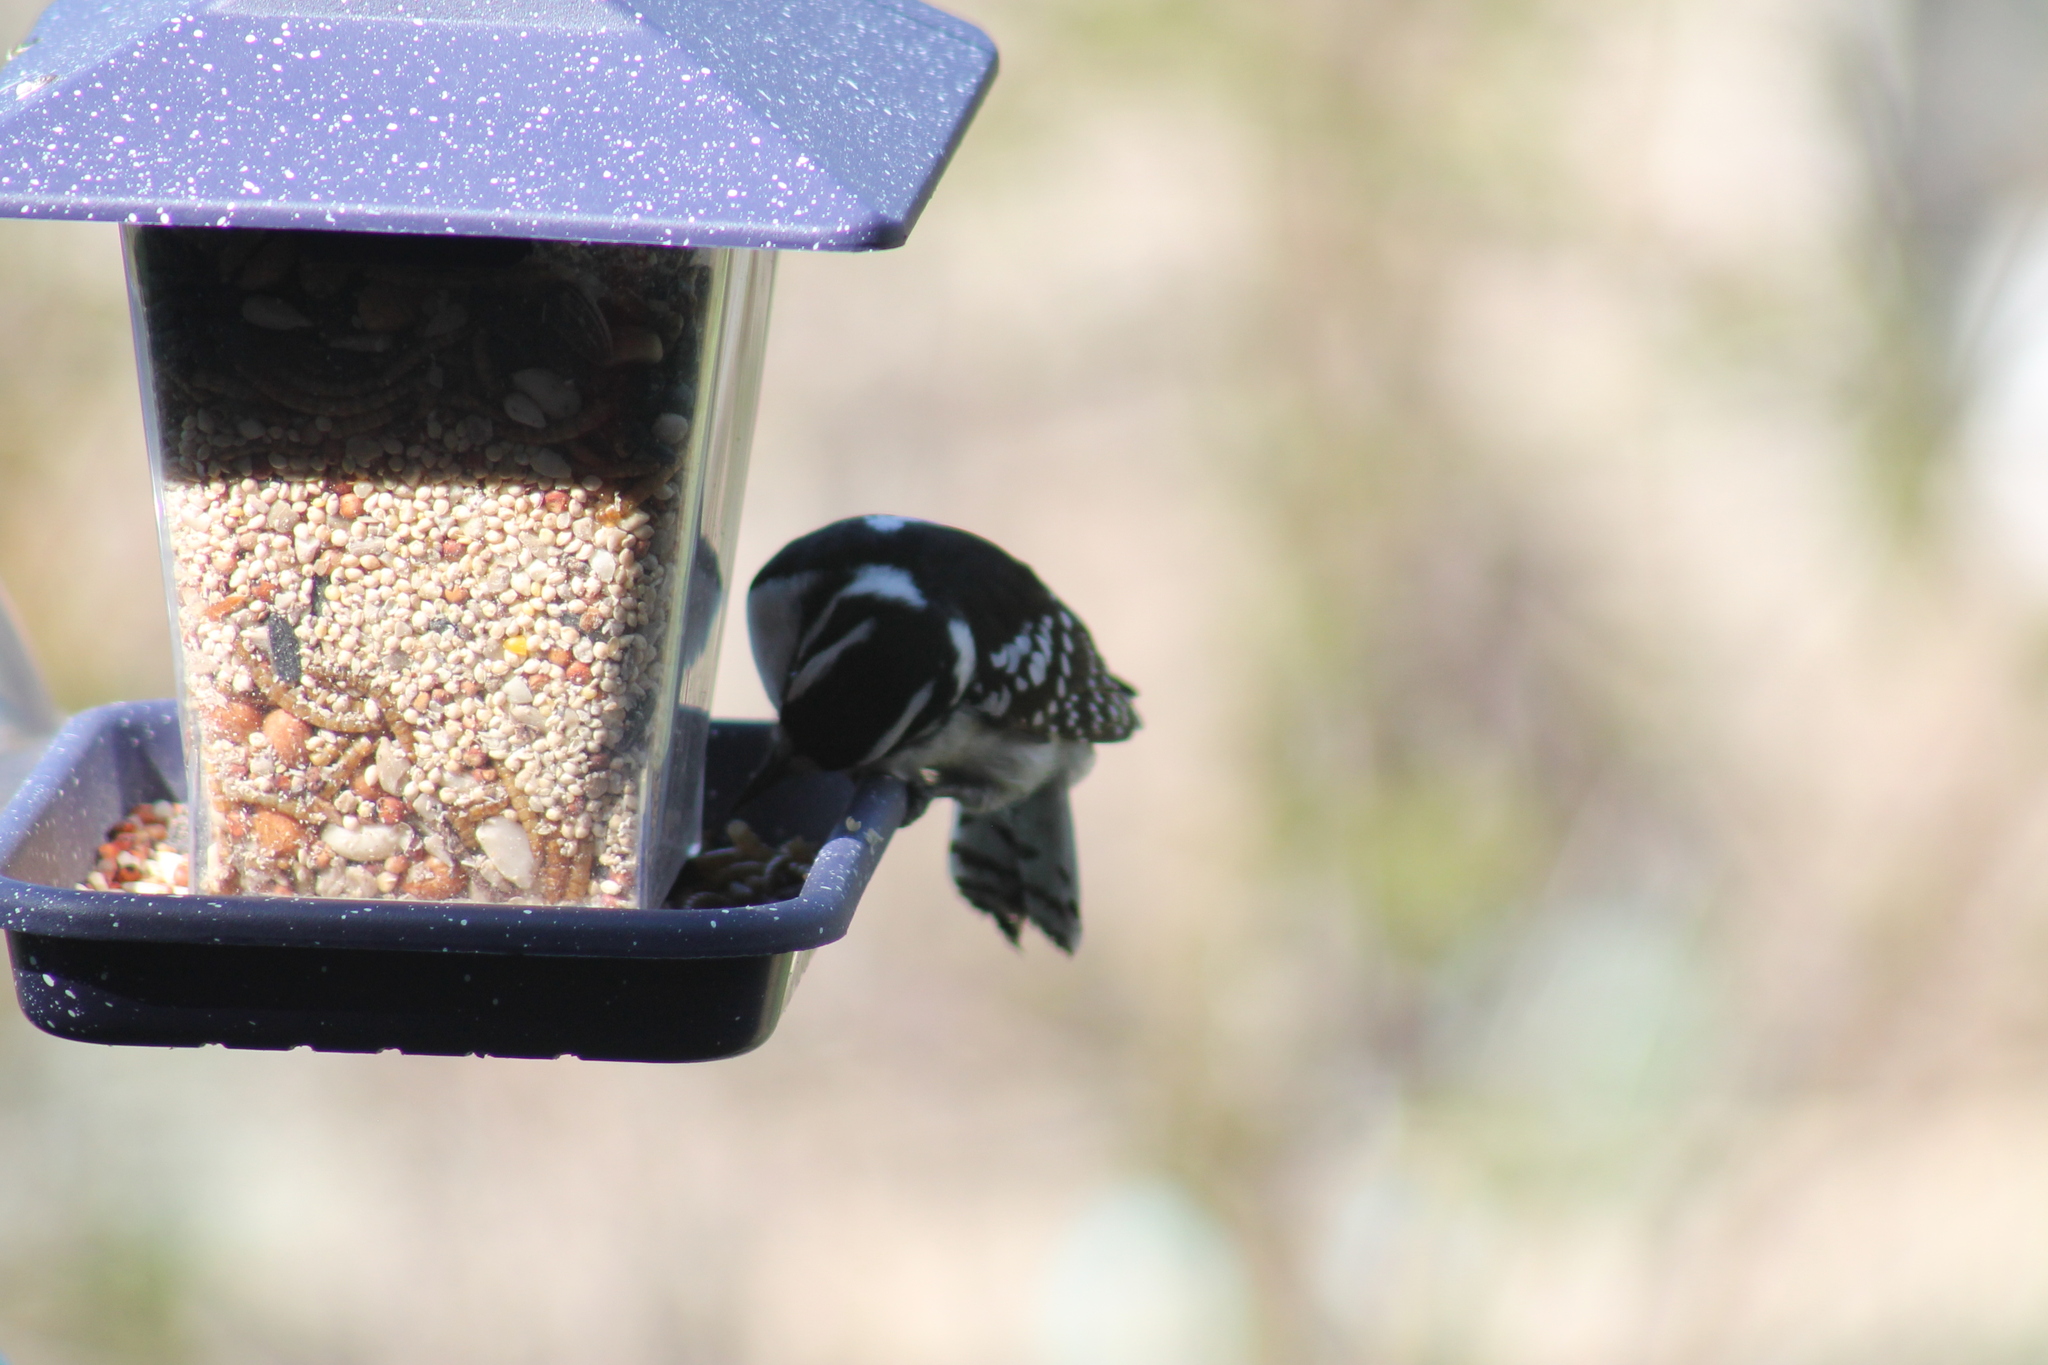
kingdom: Animalia
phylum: Chordata
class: Aves
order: Piciformes
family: Picidae
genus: Dryobates
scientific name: Dryobates pubescens
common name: Downy woodpecker
